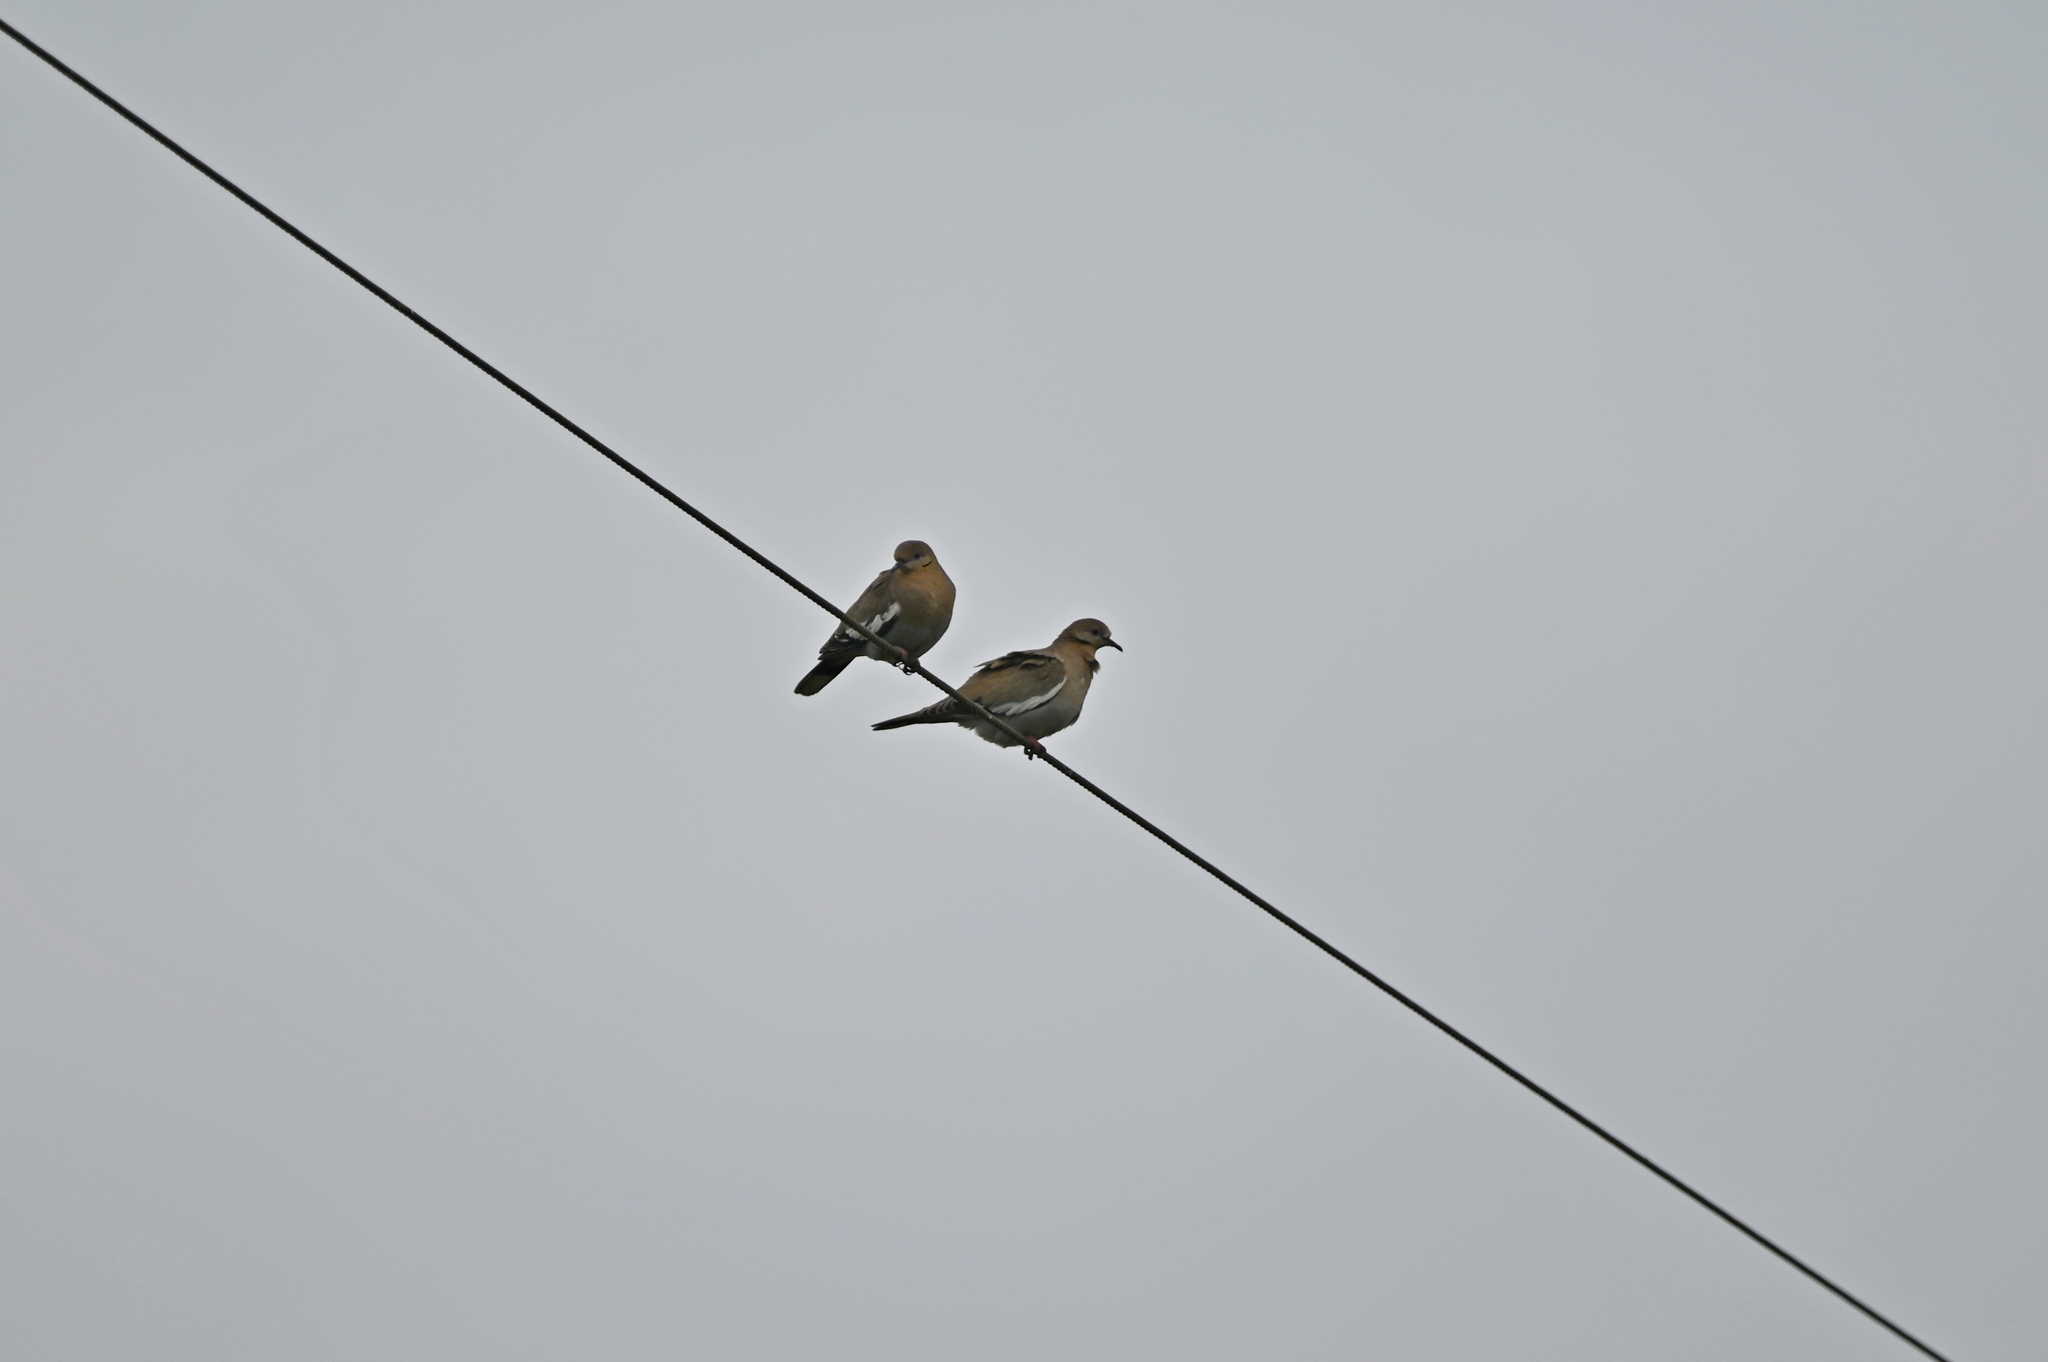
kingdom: Animalia
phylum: Chordata
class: Aves
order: Columbiformes
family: Columbidae
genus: Zenaida
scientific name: Zenaida asiatica
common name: White-winged dove
